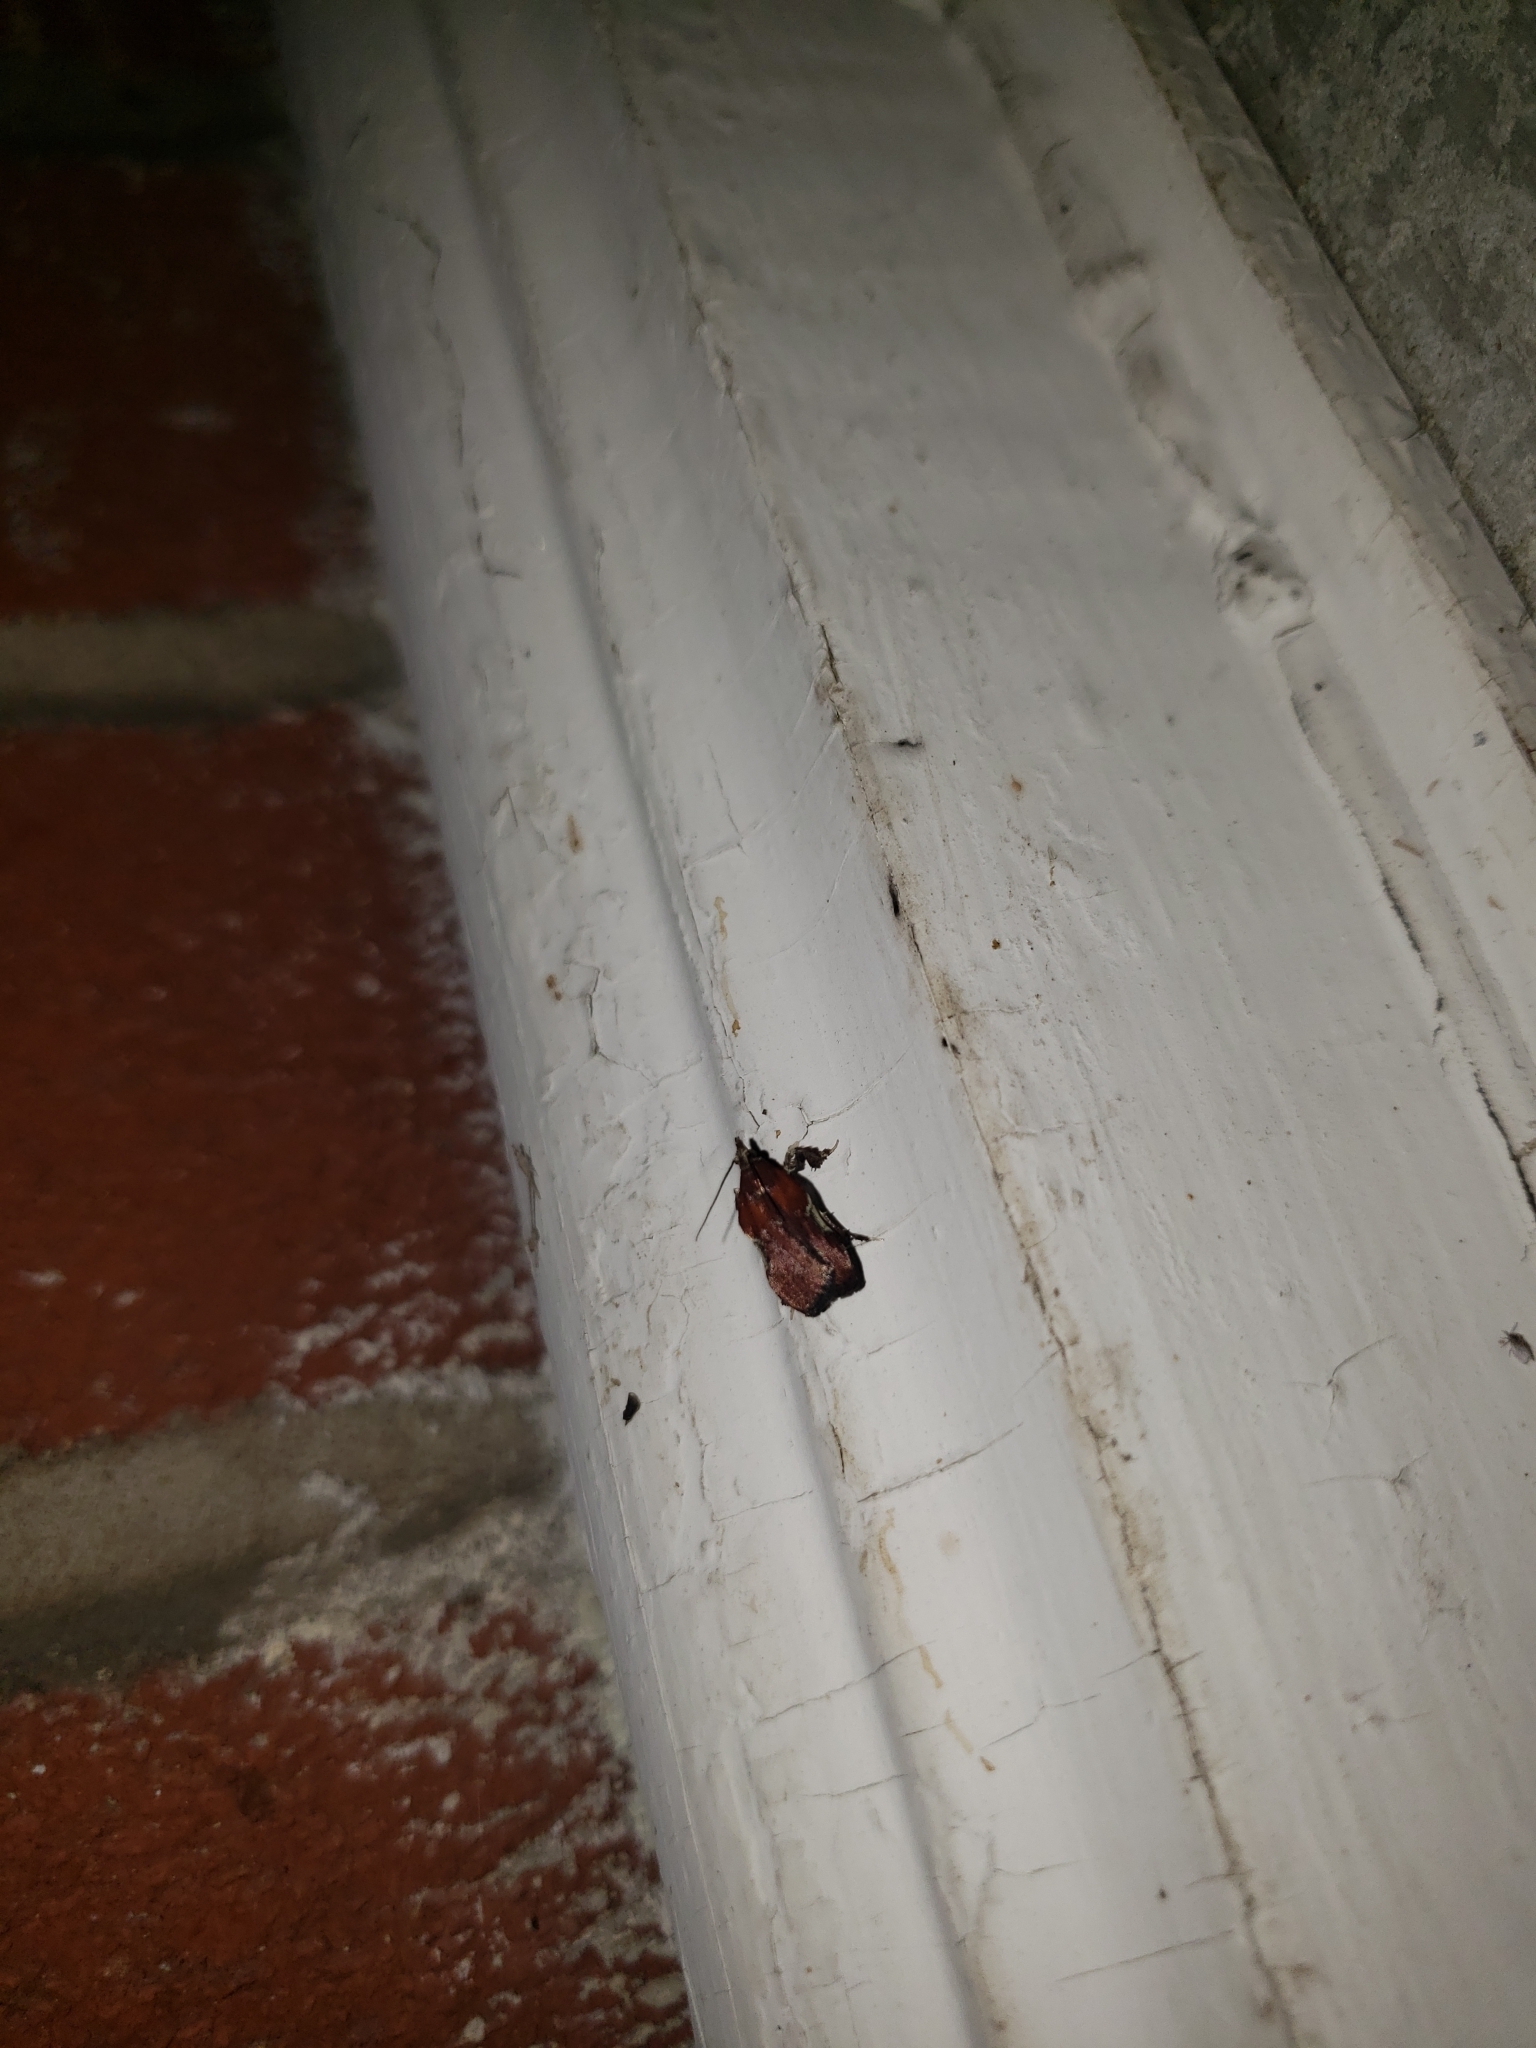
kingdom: Animalia
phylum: Arthropoda
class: Insecta
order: Lepidoptera
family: Pyralidae
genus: Galasa
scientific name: Galasa nigrinodis
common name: Boxwood leaftier moth
